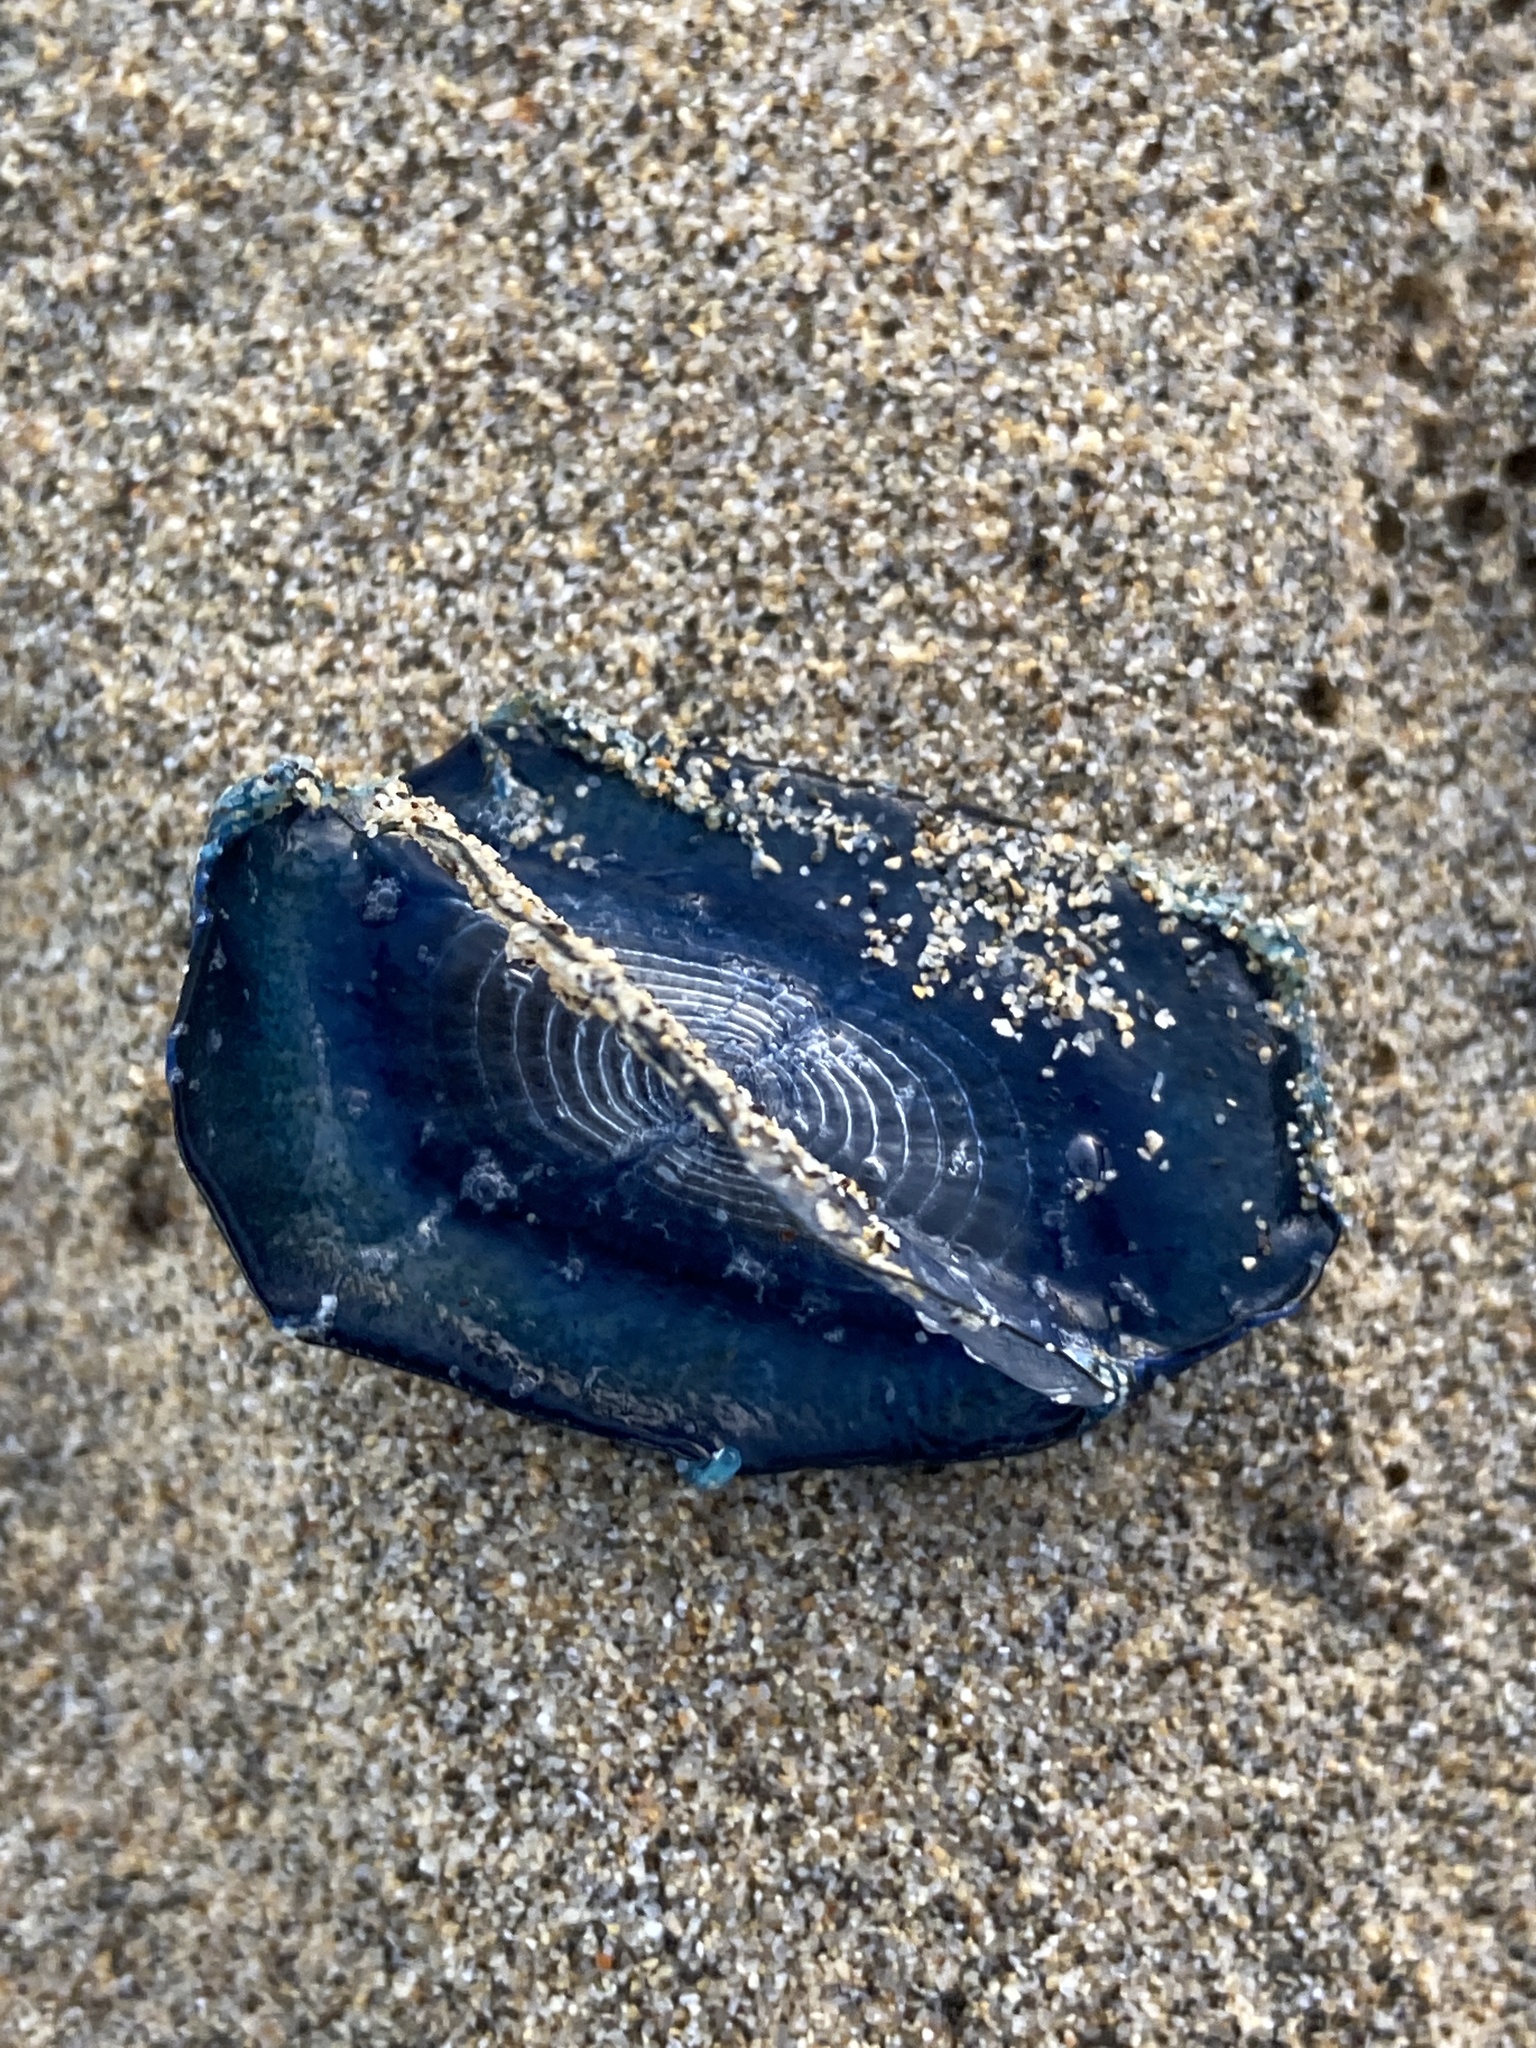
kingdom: Animalia
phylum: Cnidaria
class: Hydrozoa
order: Anthoathecata
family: Porpitidae
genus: Velella
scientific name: Velella velella
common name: By-the-wind-sailor
